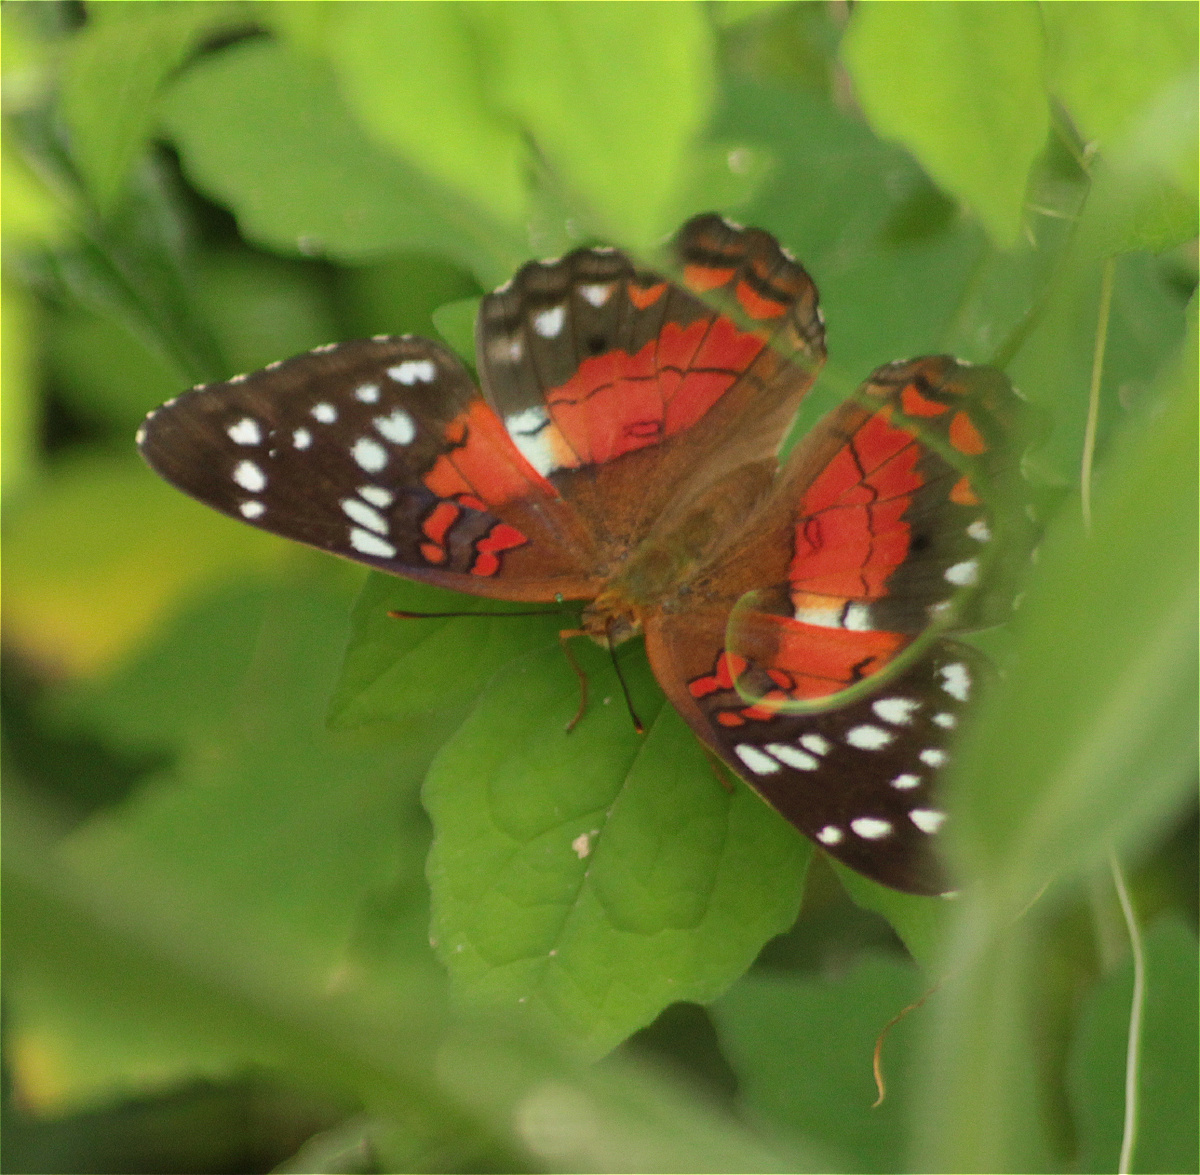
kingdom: Animalia
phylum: Arthropoda
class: Insecta
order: Lepidoptera
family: Nymphalidae
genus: Anartia
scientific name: Anartia amathea
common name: Red peacock
